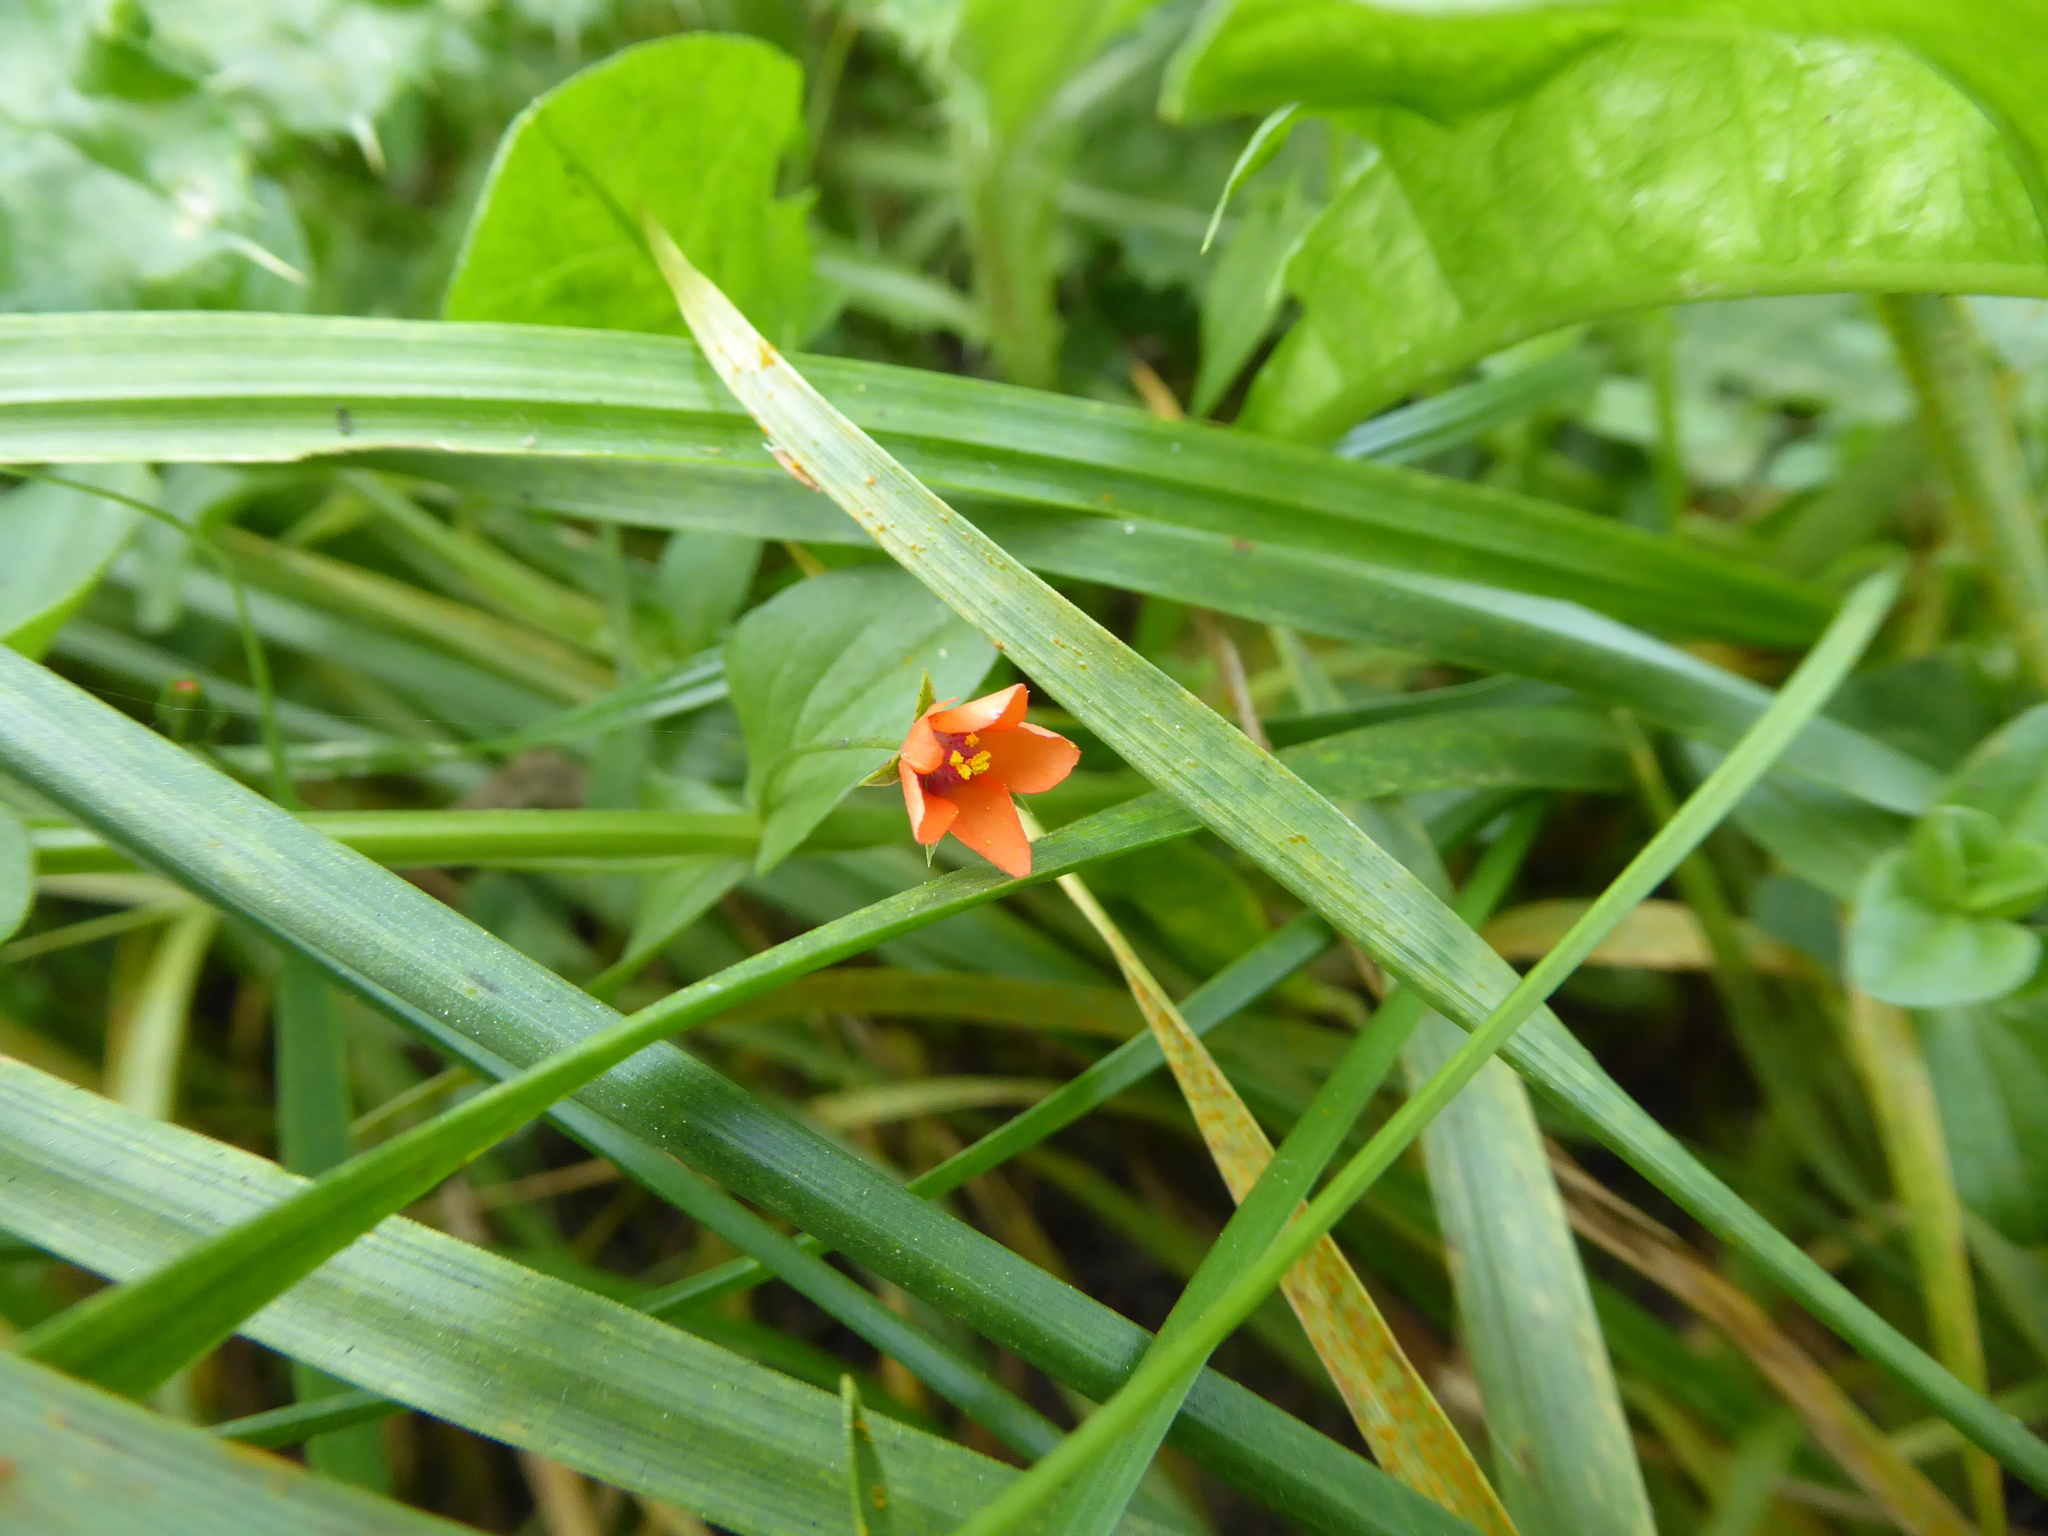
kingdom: Plantae
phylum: Tracheophyta
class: Magnoliopsida
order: Ericales
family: Primulaceae
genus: Lysimachia
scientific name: Lysimachia arvensis
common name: Scarlet pimpernel
